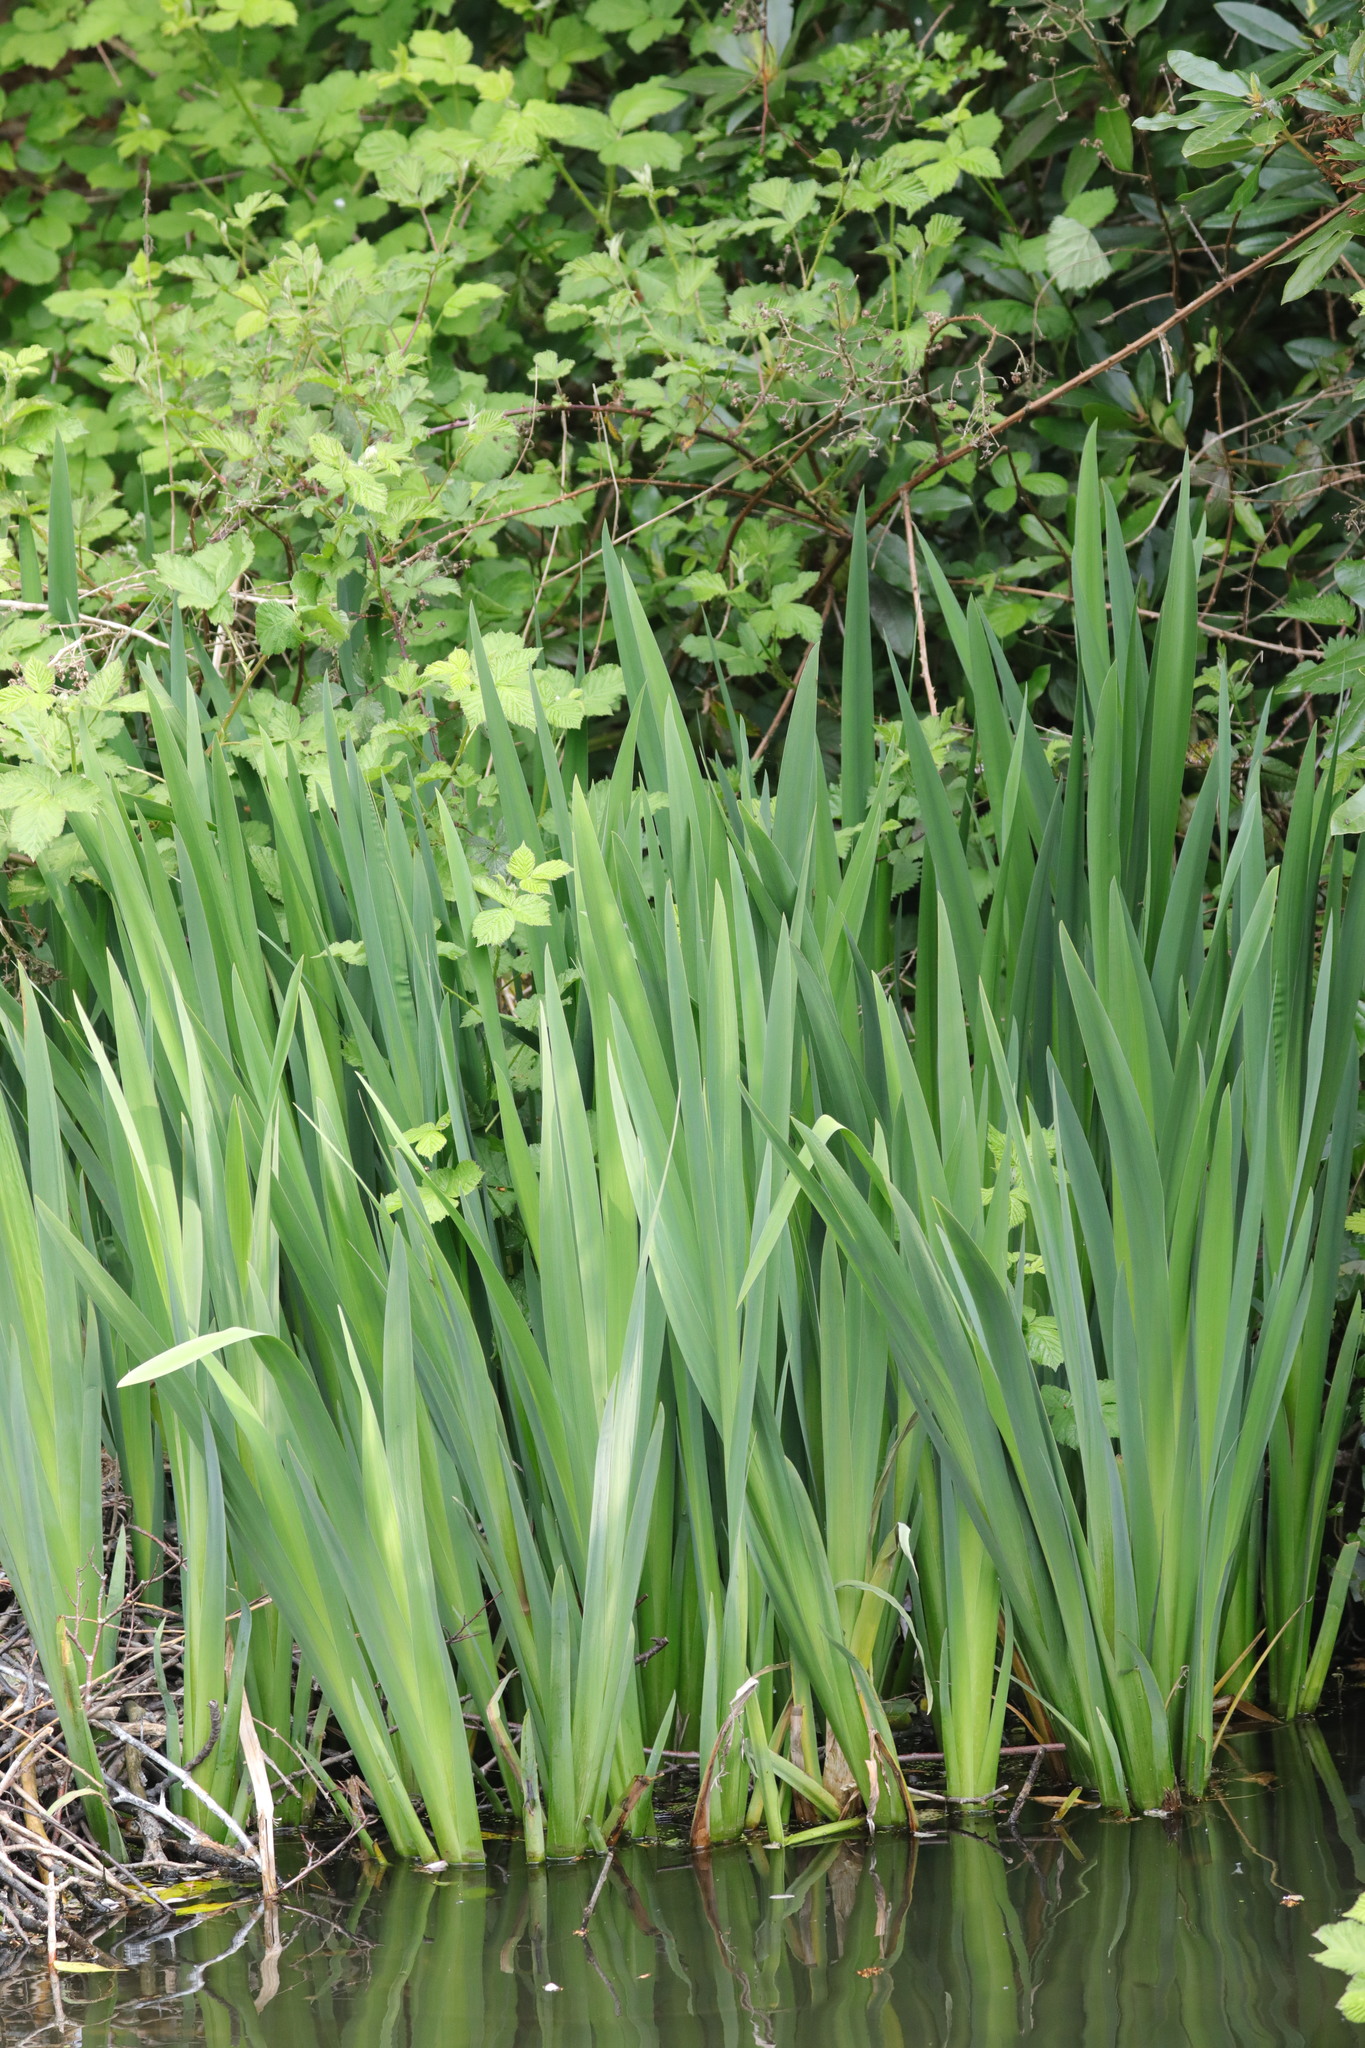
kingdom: Plantae
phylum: Tracheophyta
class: Liliopsida
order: Asparagales
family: Iridaceae
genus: Iris
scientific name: Iris pseudacorus
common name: Yellow flag
